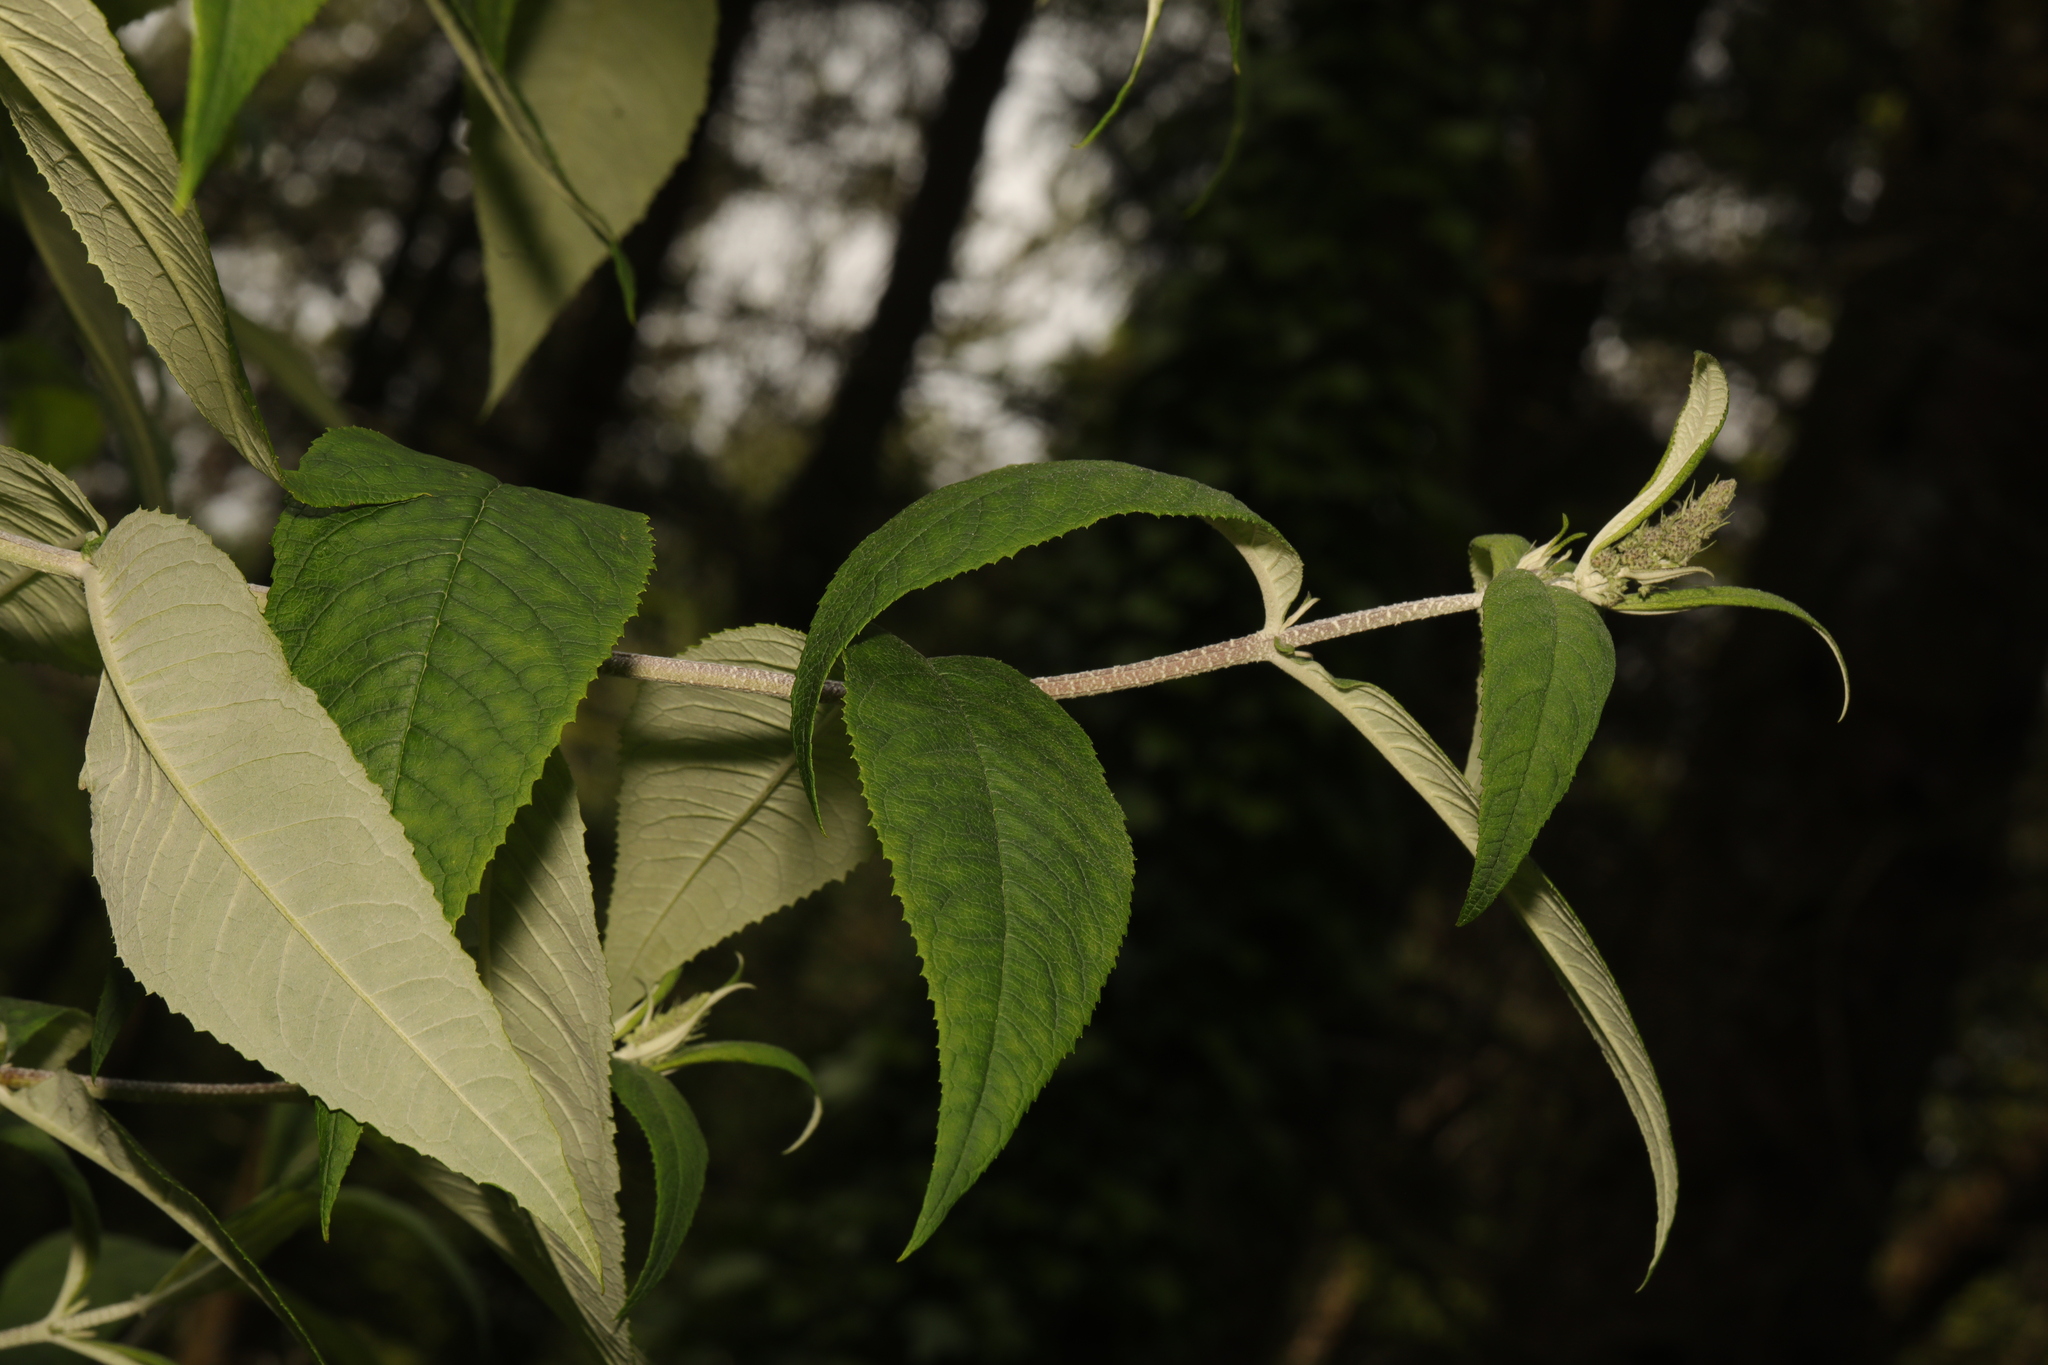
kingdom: Plantae
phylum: Tracheophyta
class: Magnoliopsida
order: Lamiales
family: Scrophulariaceae
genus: Buddleja
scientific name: Buddleja davidii
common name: Butterfly-bush
